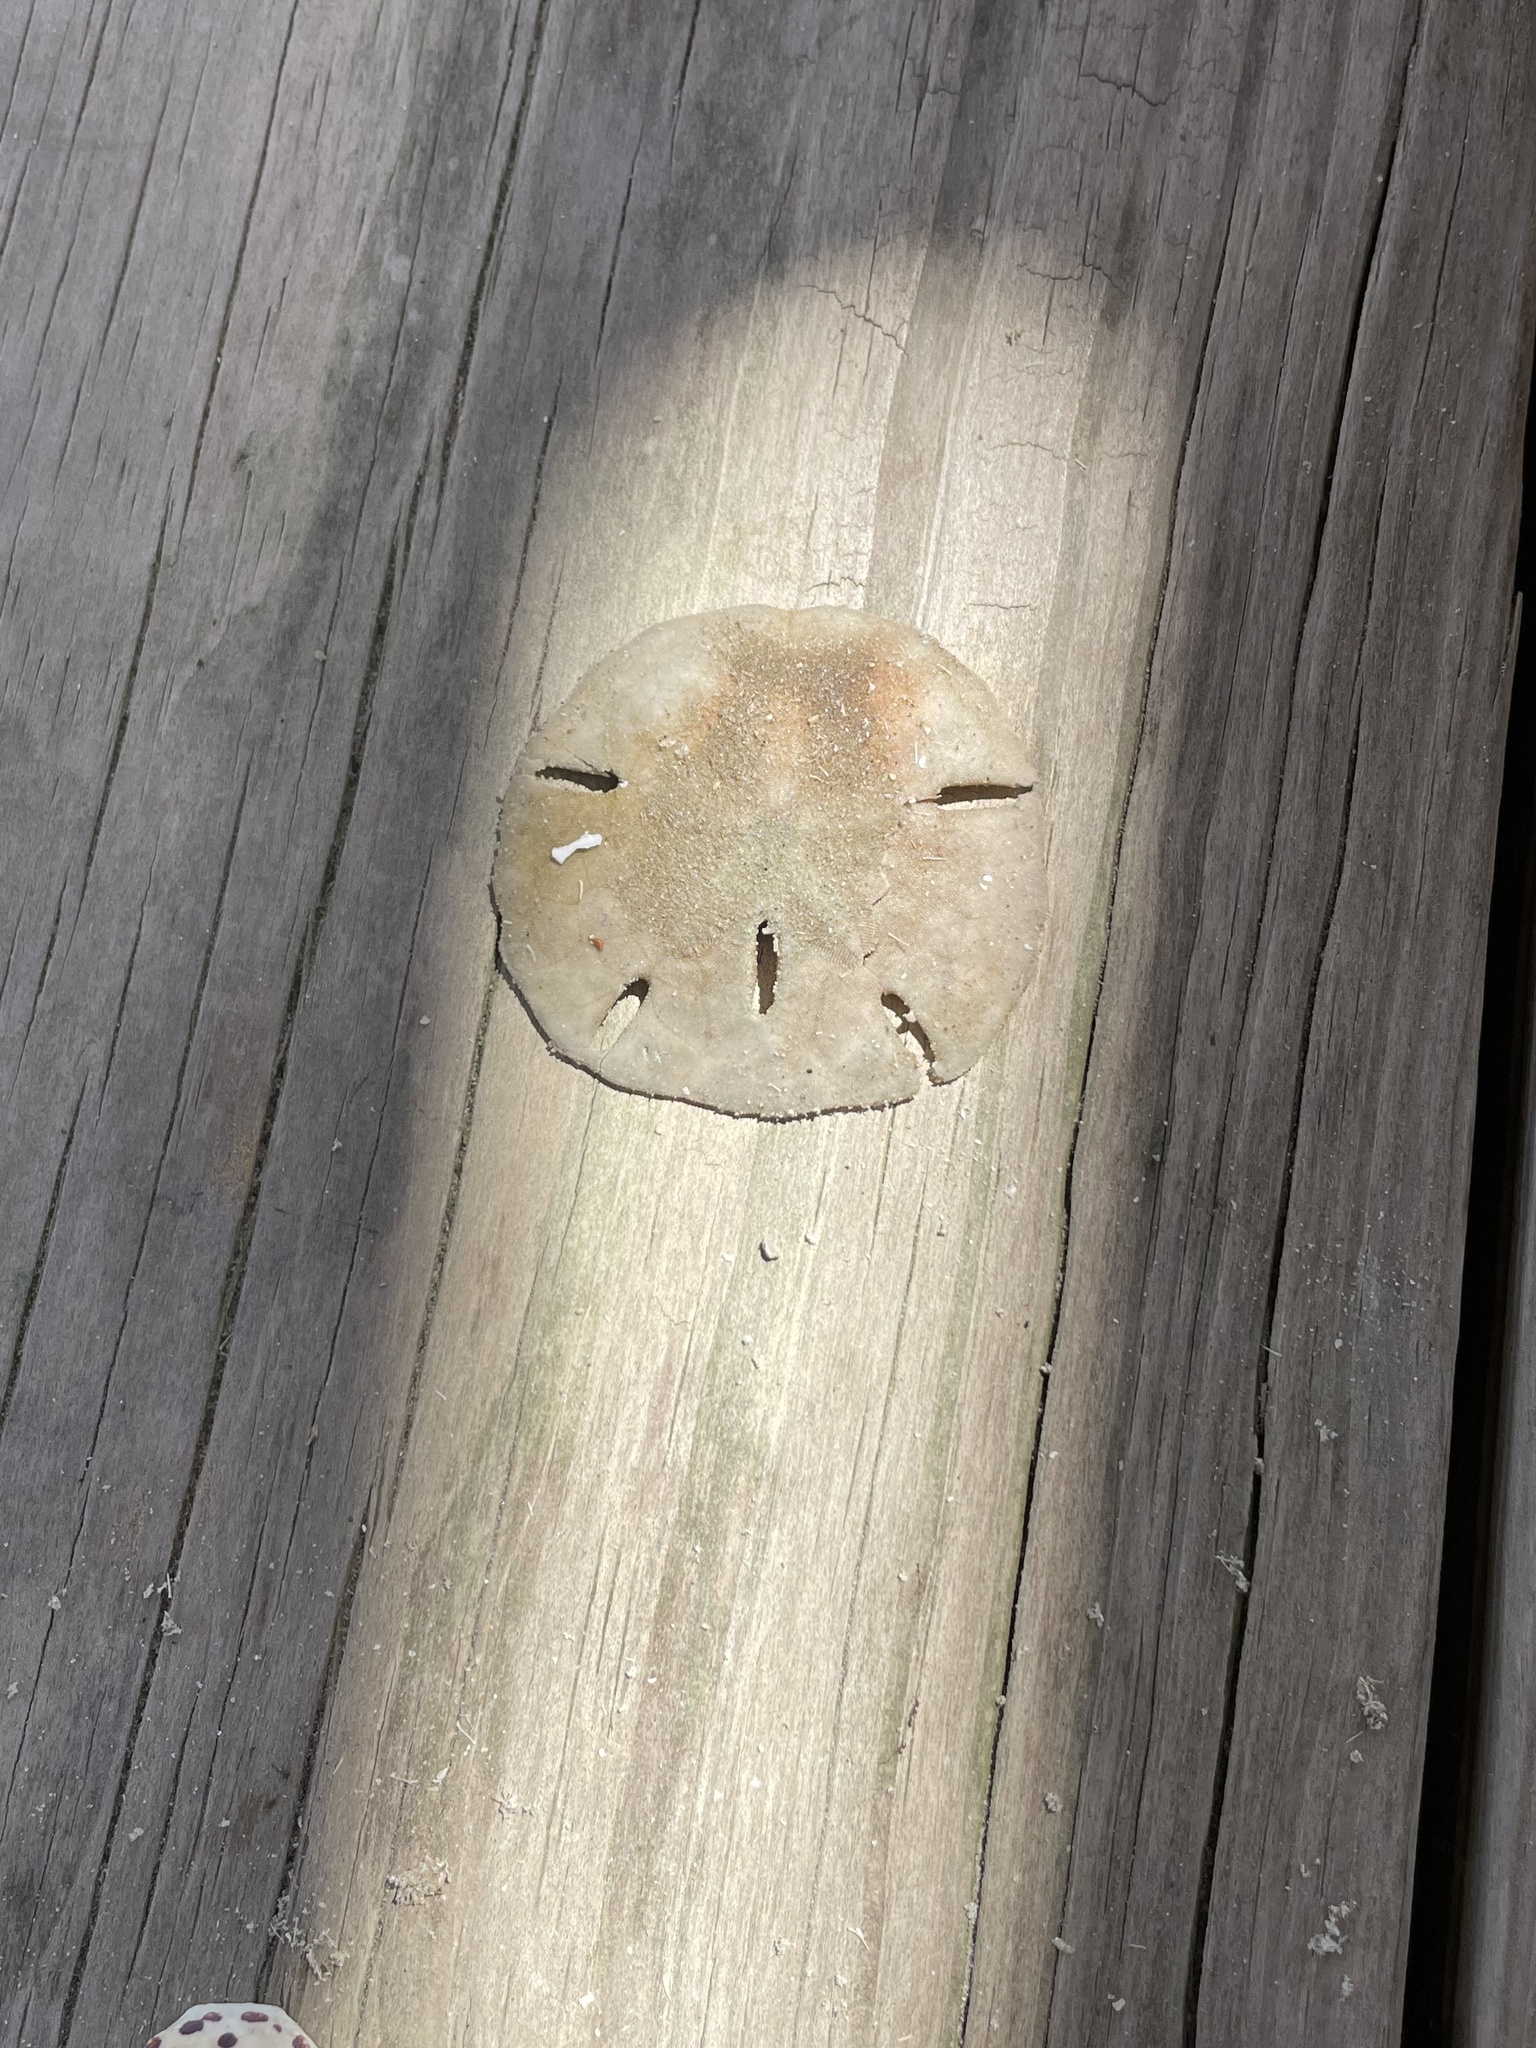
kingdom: Animalia
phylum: Echinodermata
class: Echinoidea
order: Echinolampadacea
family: Mellitidae
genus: Mellita
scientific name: Mellita quinquiesperforata
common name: Sand dollar
